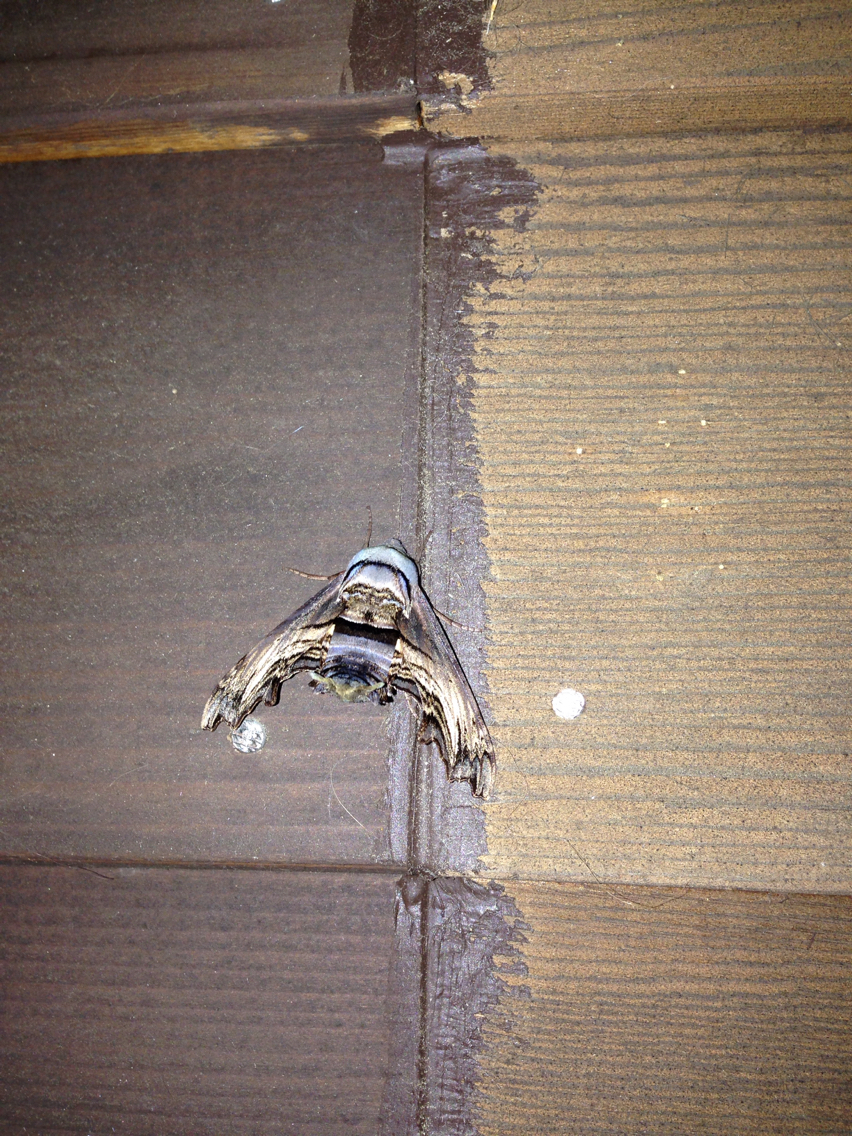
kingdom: Animalia
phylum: Arthropoda
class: Insecta
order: Lepidoptera
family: Sphingidae
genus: Sphecodina
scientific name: Sphecodina abbottii
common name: Abbott's sphinx
